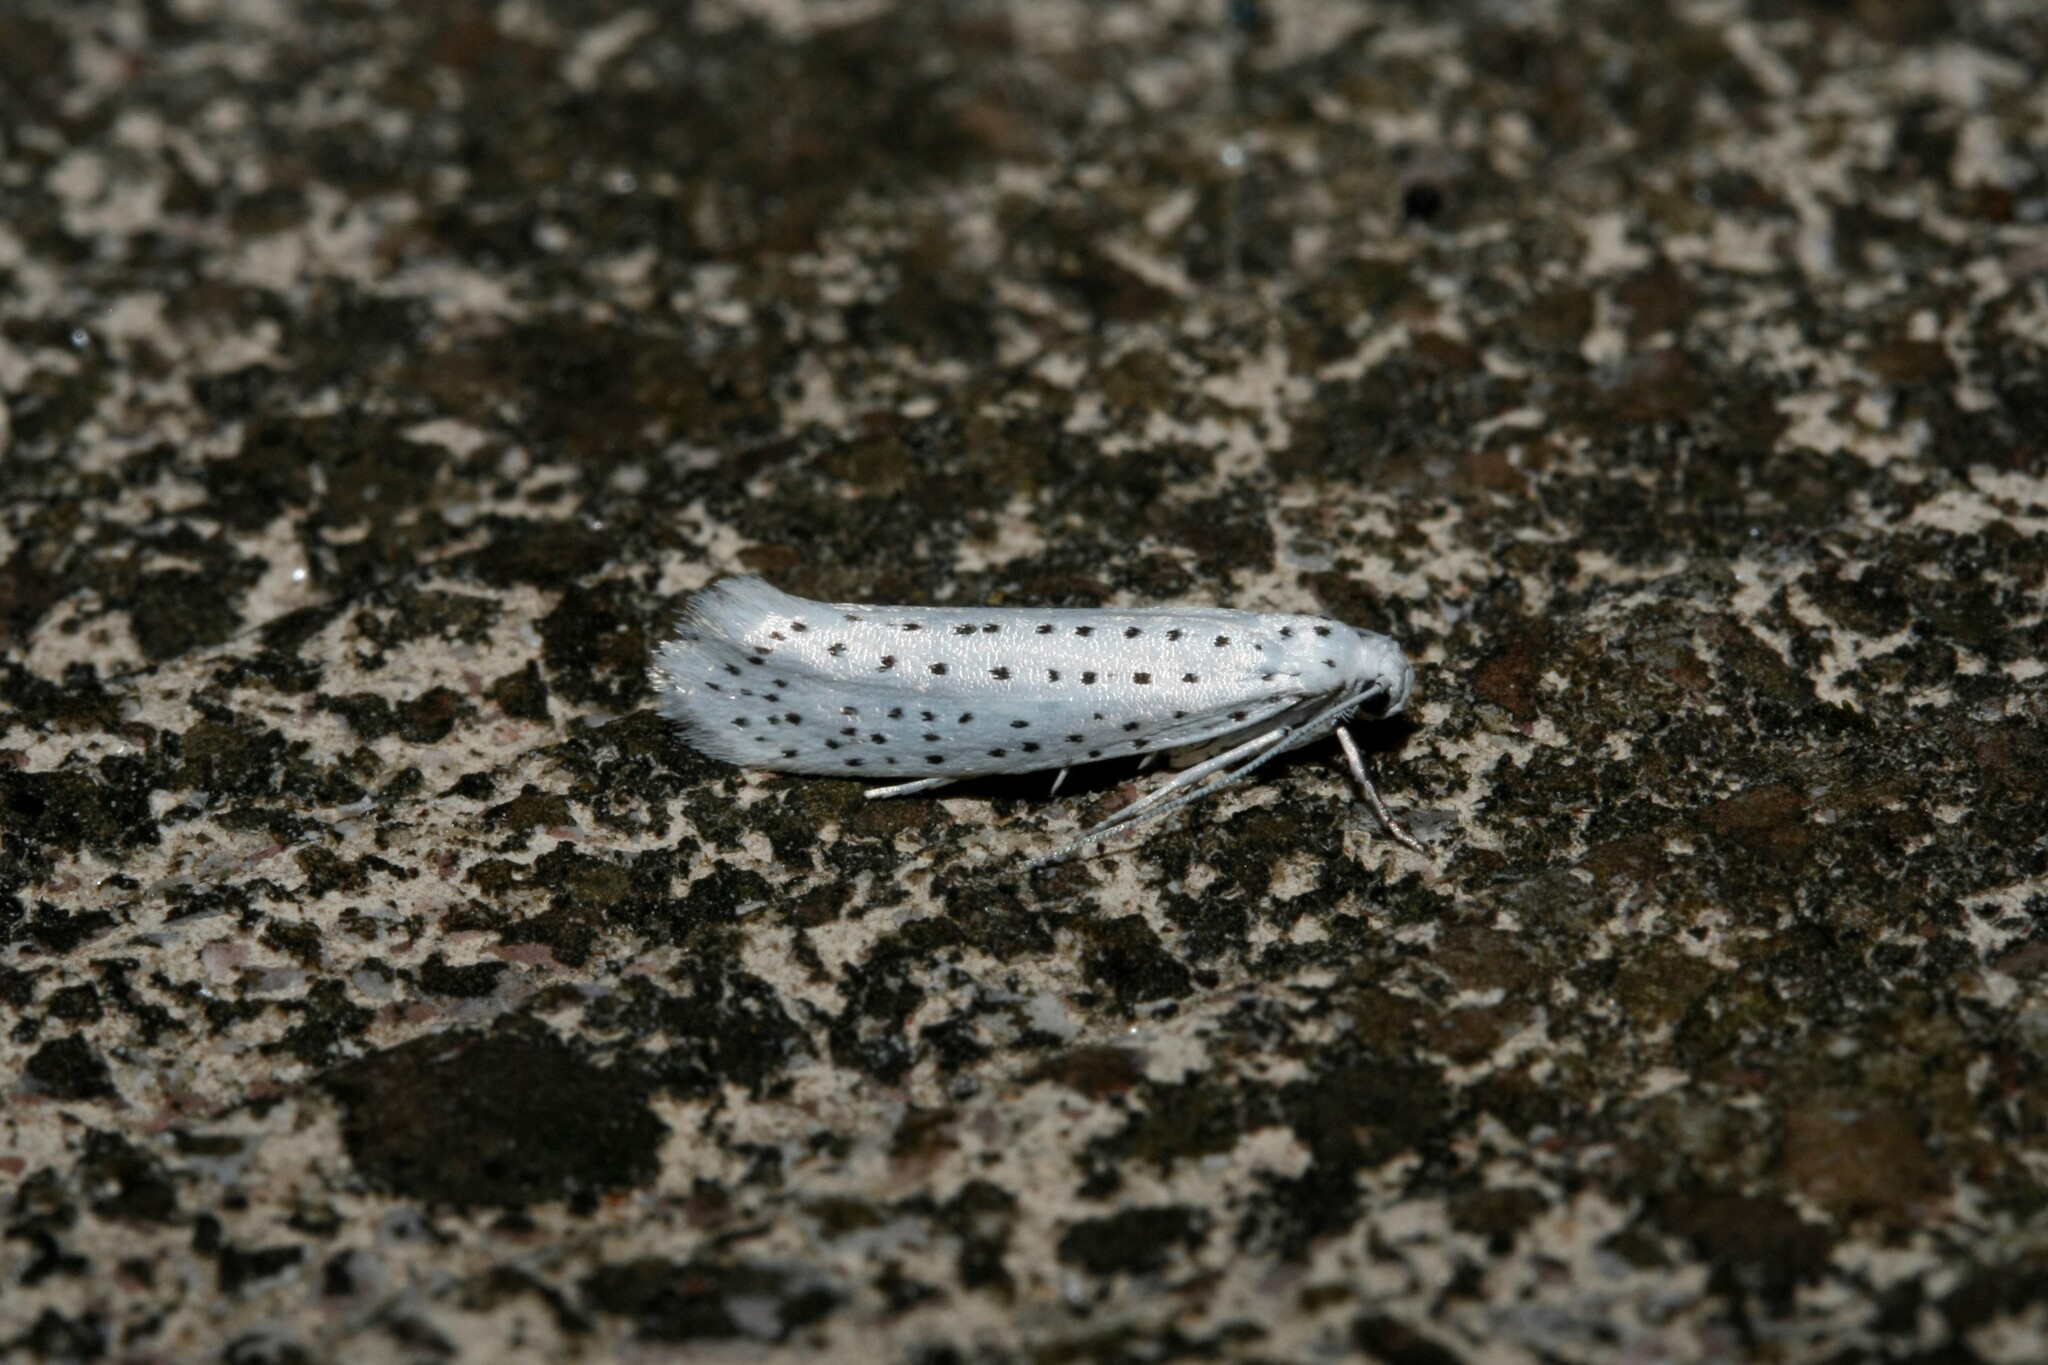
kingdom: Animalia
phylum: Arthropoda
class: Insecta
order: Lepidoptera
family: Yponomeutidae
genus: Yponomeuta
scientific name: Yponomeuta evonymella
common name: Bird-cherry ermine
